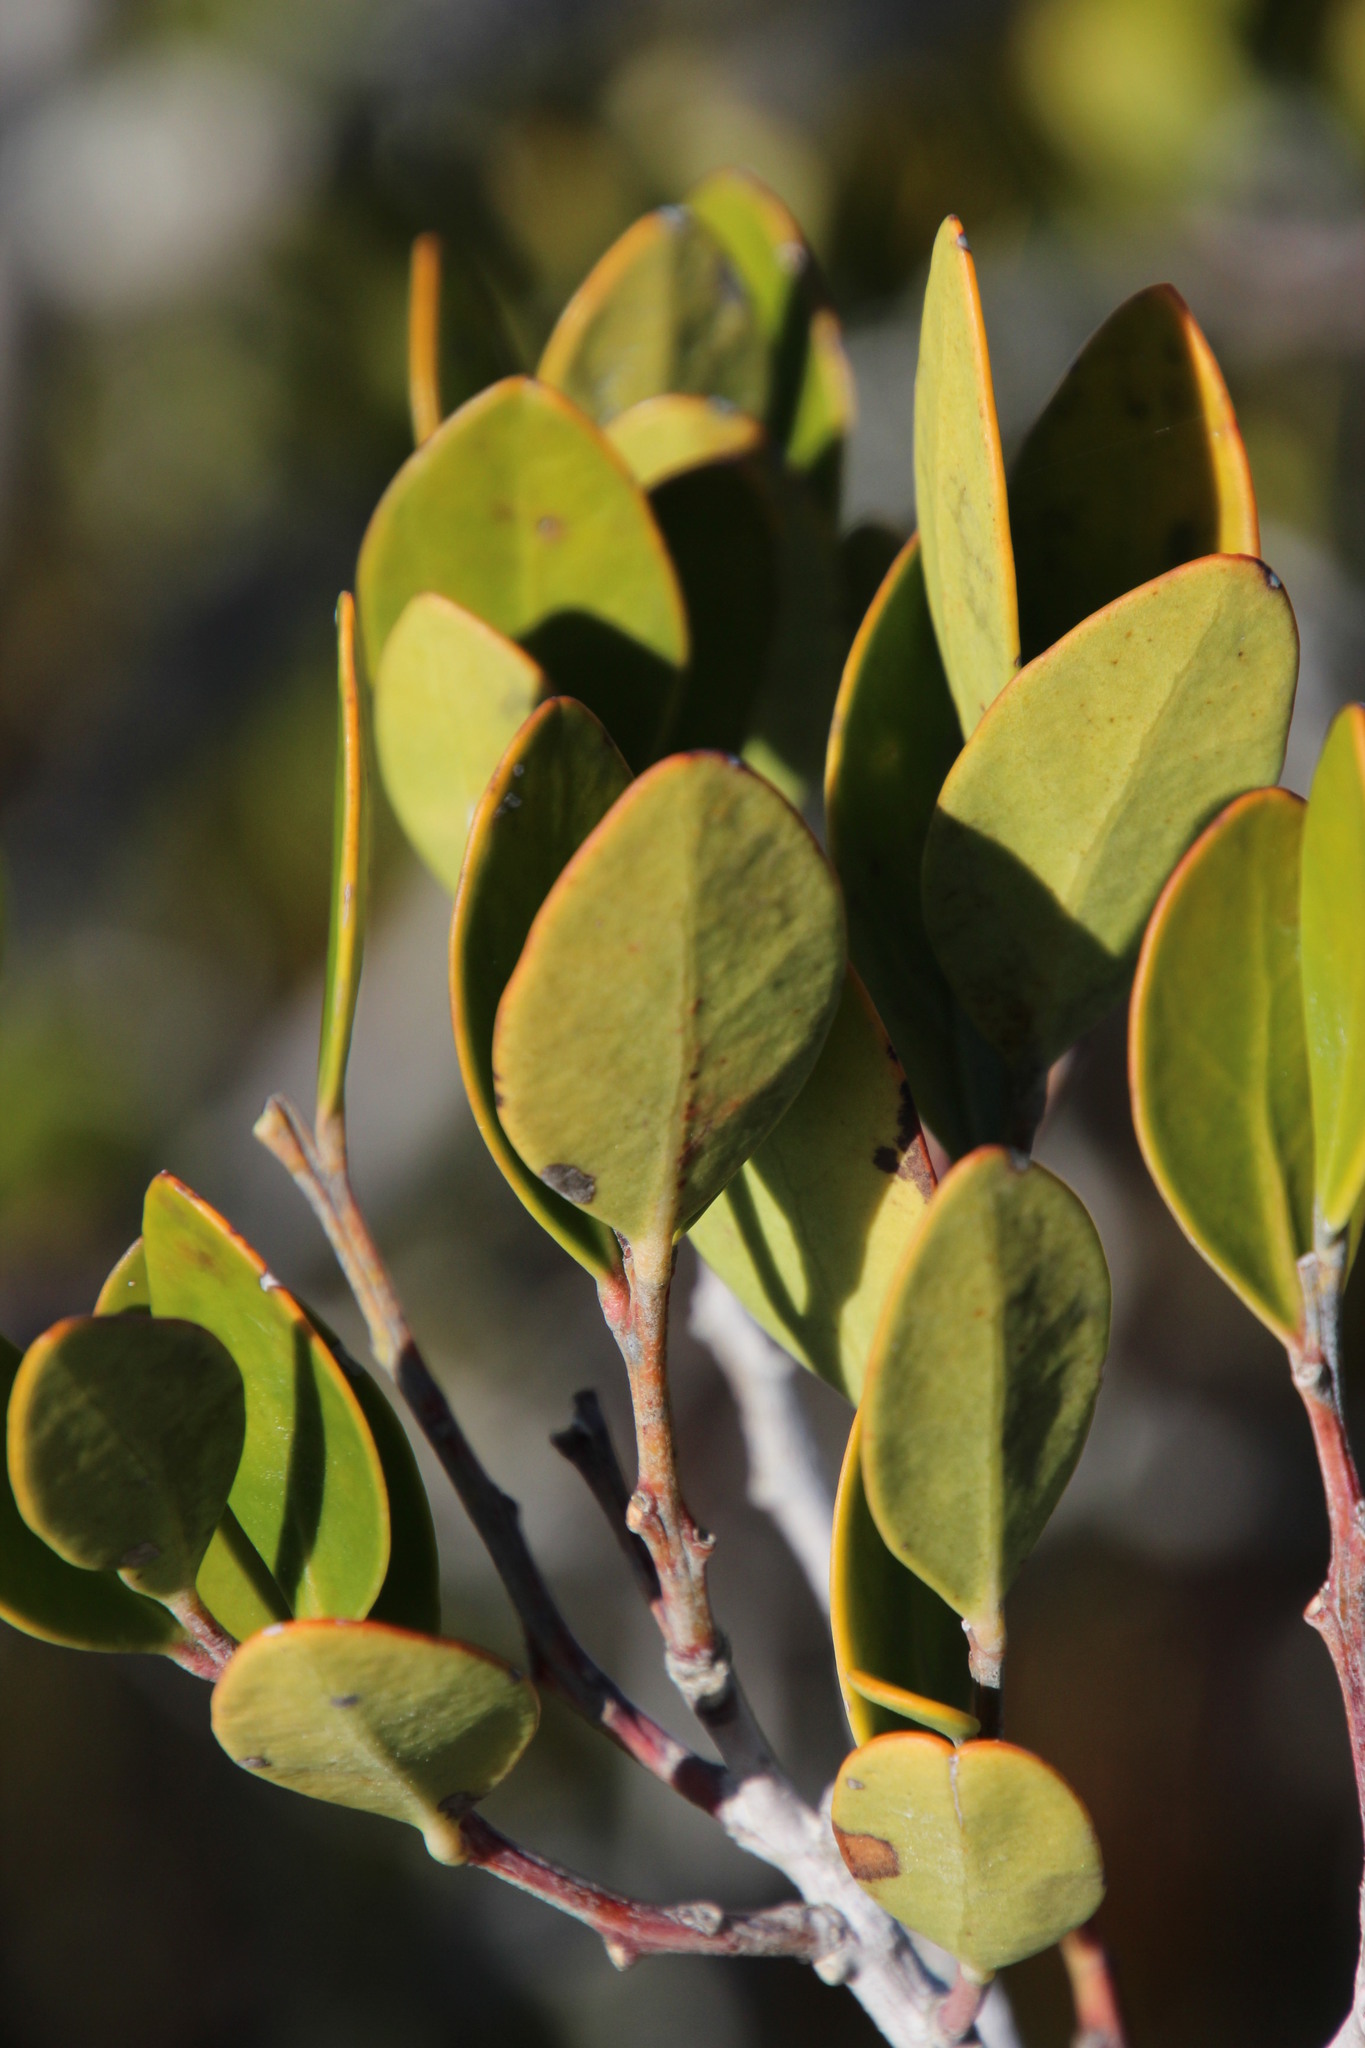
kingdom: Plantae
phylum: Tracheophyta
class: Magnoliopsida
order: Celastrales
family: Celastraceae
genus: Pterocelastrus
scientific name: Pterocelastrus tricuspidatus
